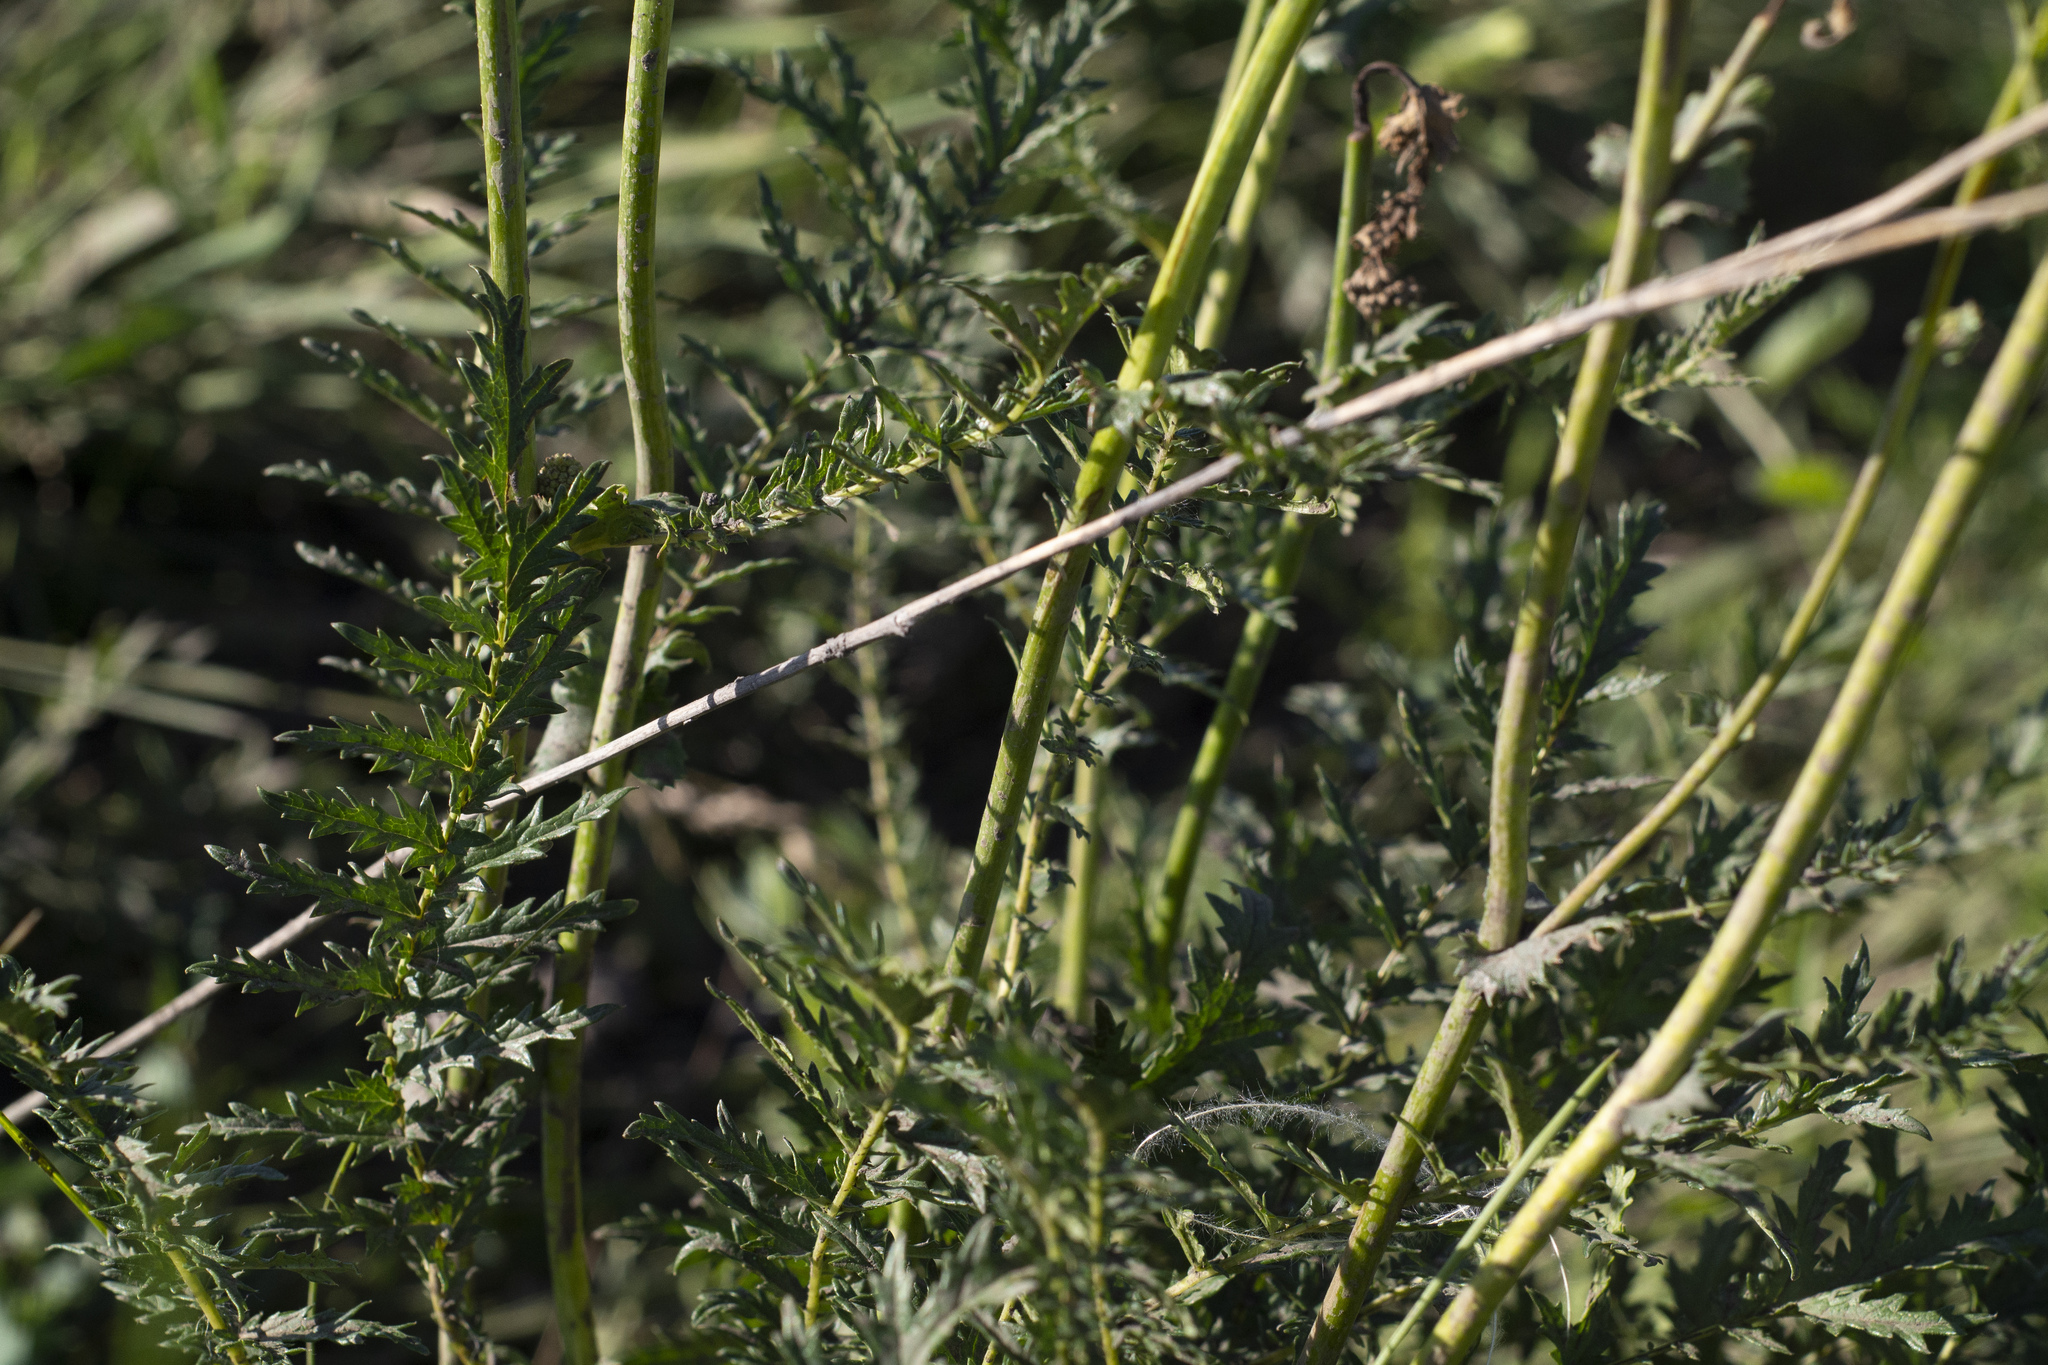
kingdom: Plantae
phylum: Tracheophyta
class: Magnoliopsida
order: Rosales
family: Rosaceae
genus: Filipendula
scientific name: Filipendula vulgaris
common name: Dropwort
